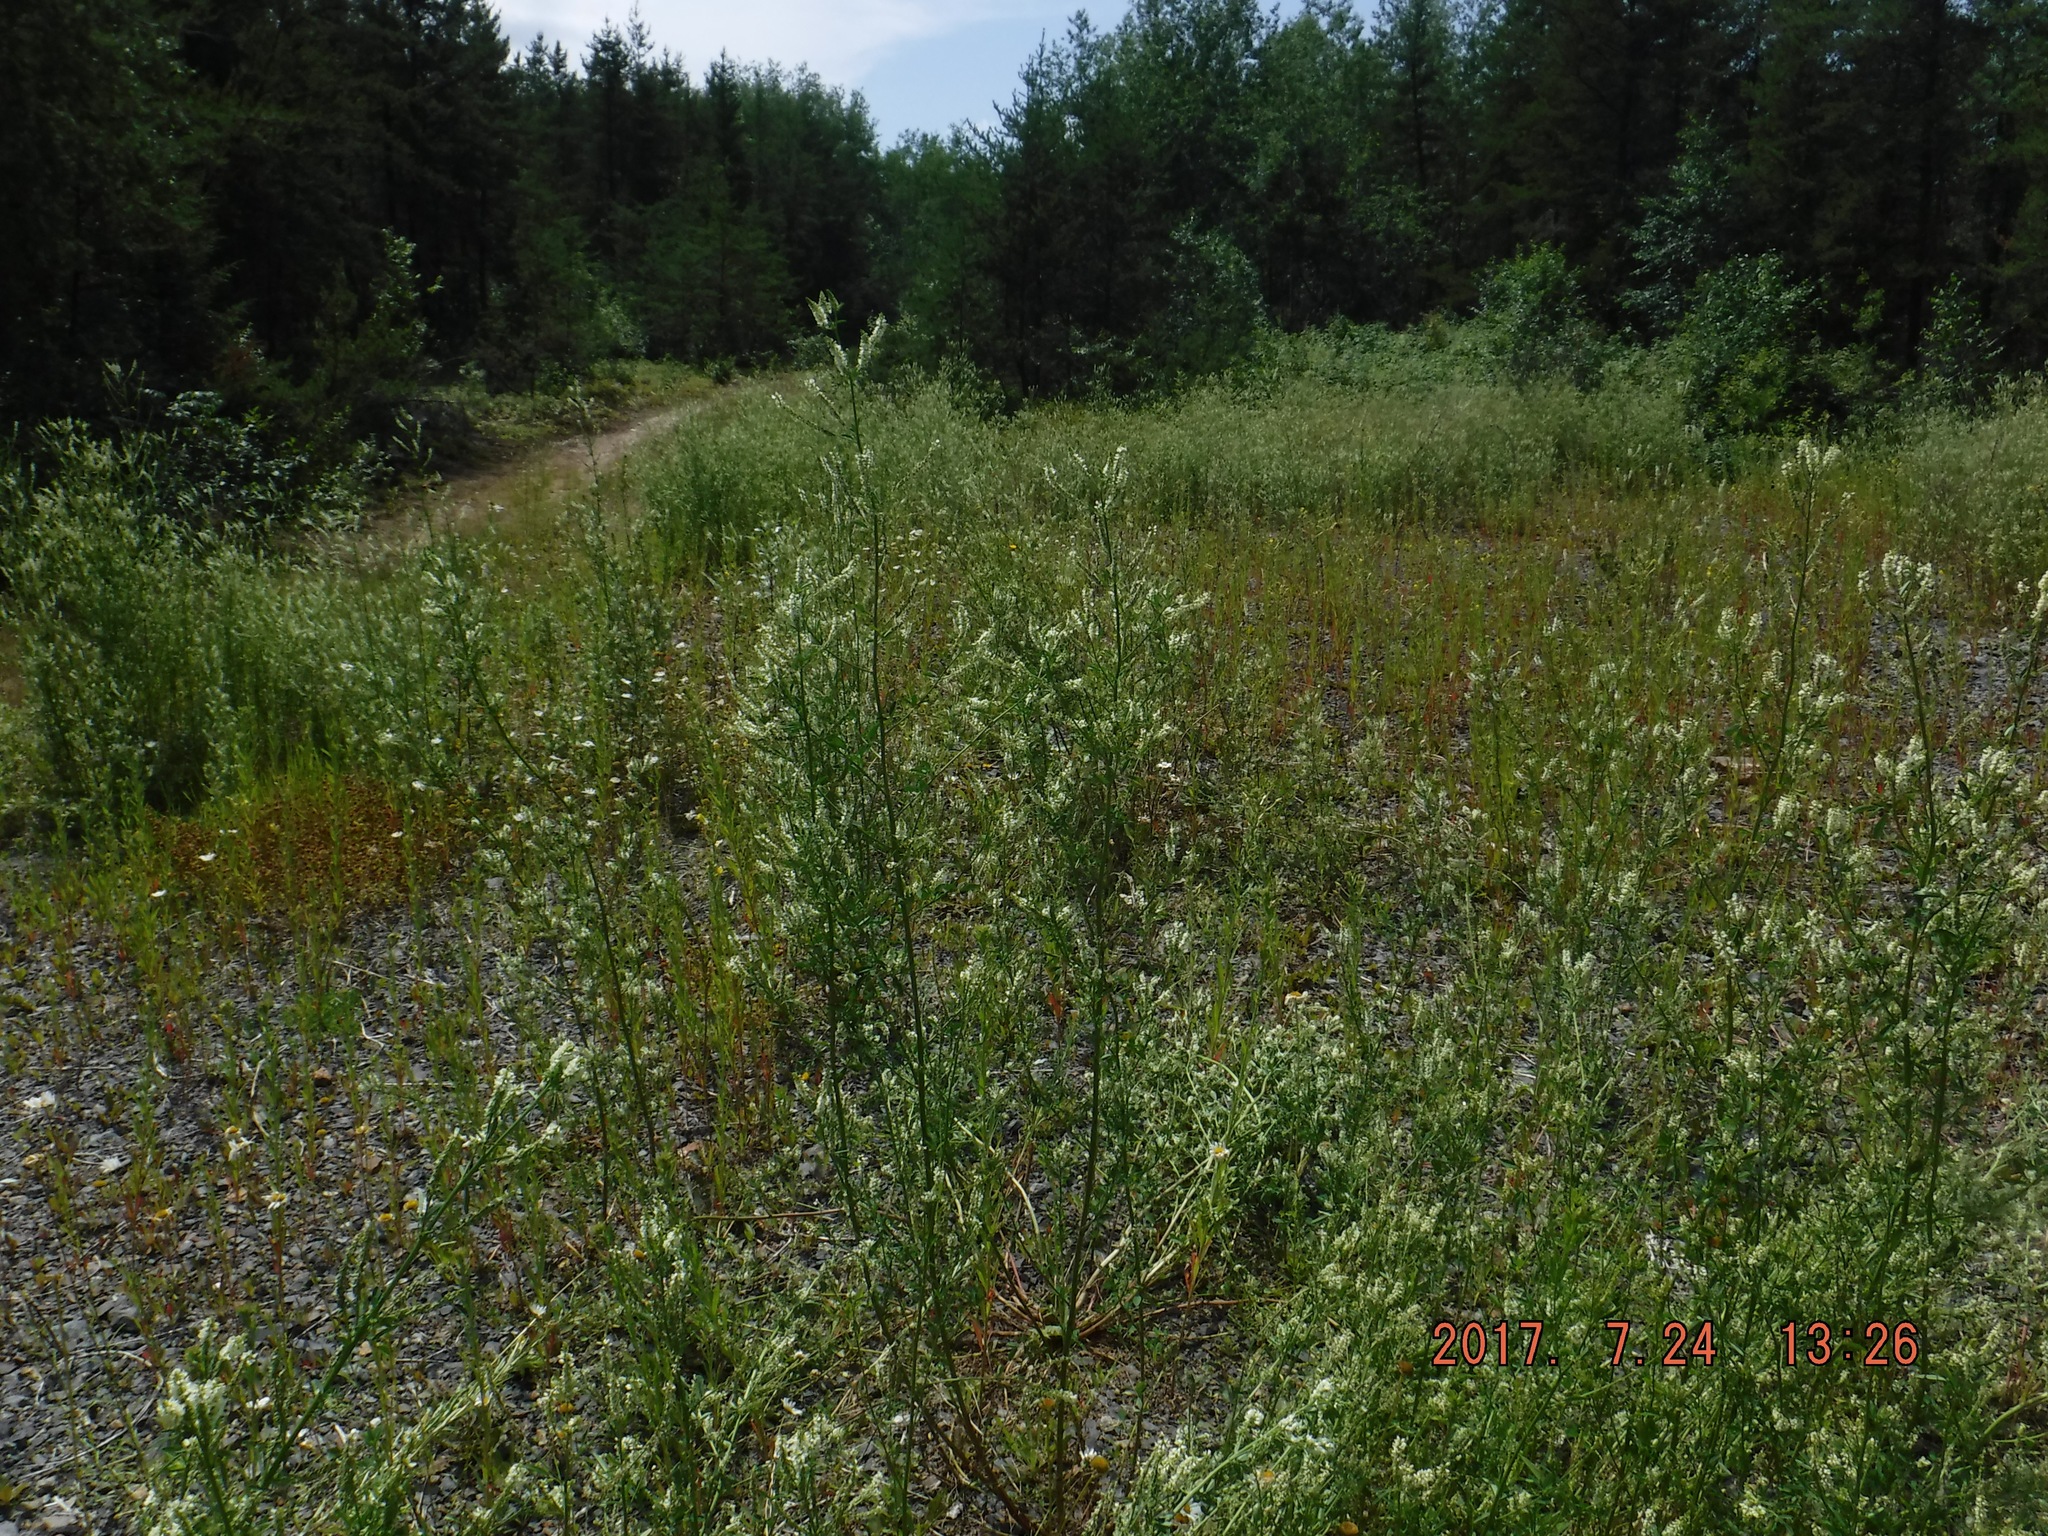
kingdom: Plantae
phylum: Tracheophyta
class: Magnoliopsida
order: Fabales
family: Fabaceae
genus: Melilotus
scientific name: Melilotus albus
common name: White melilot
